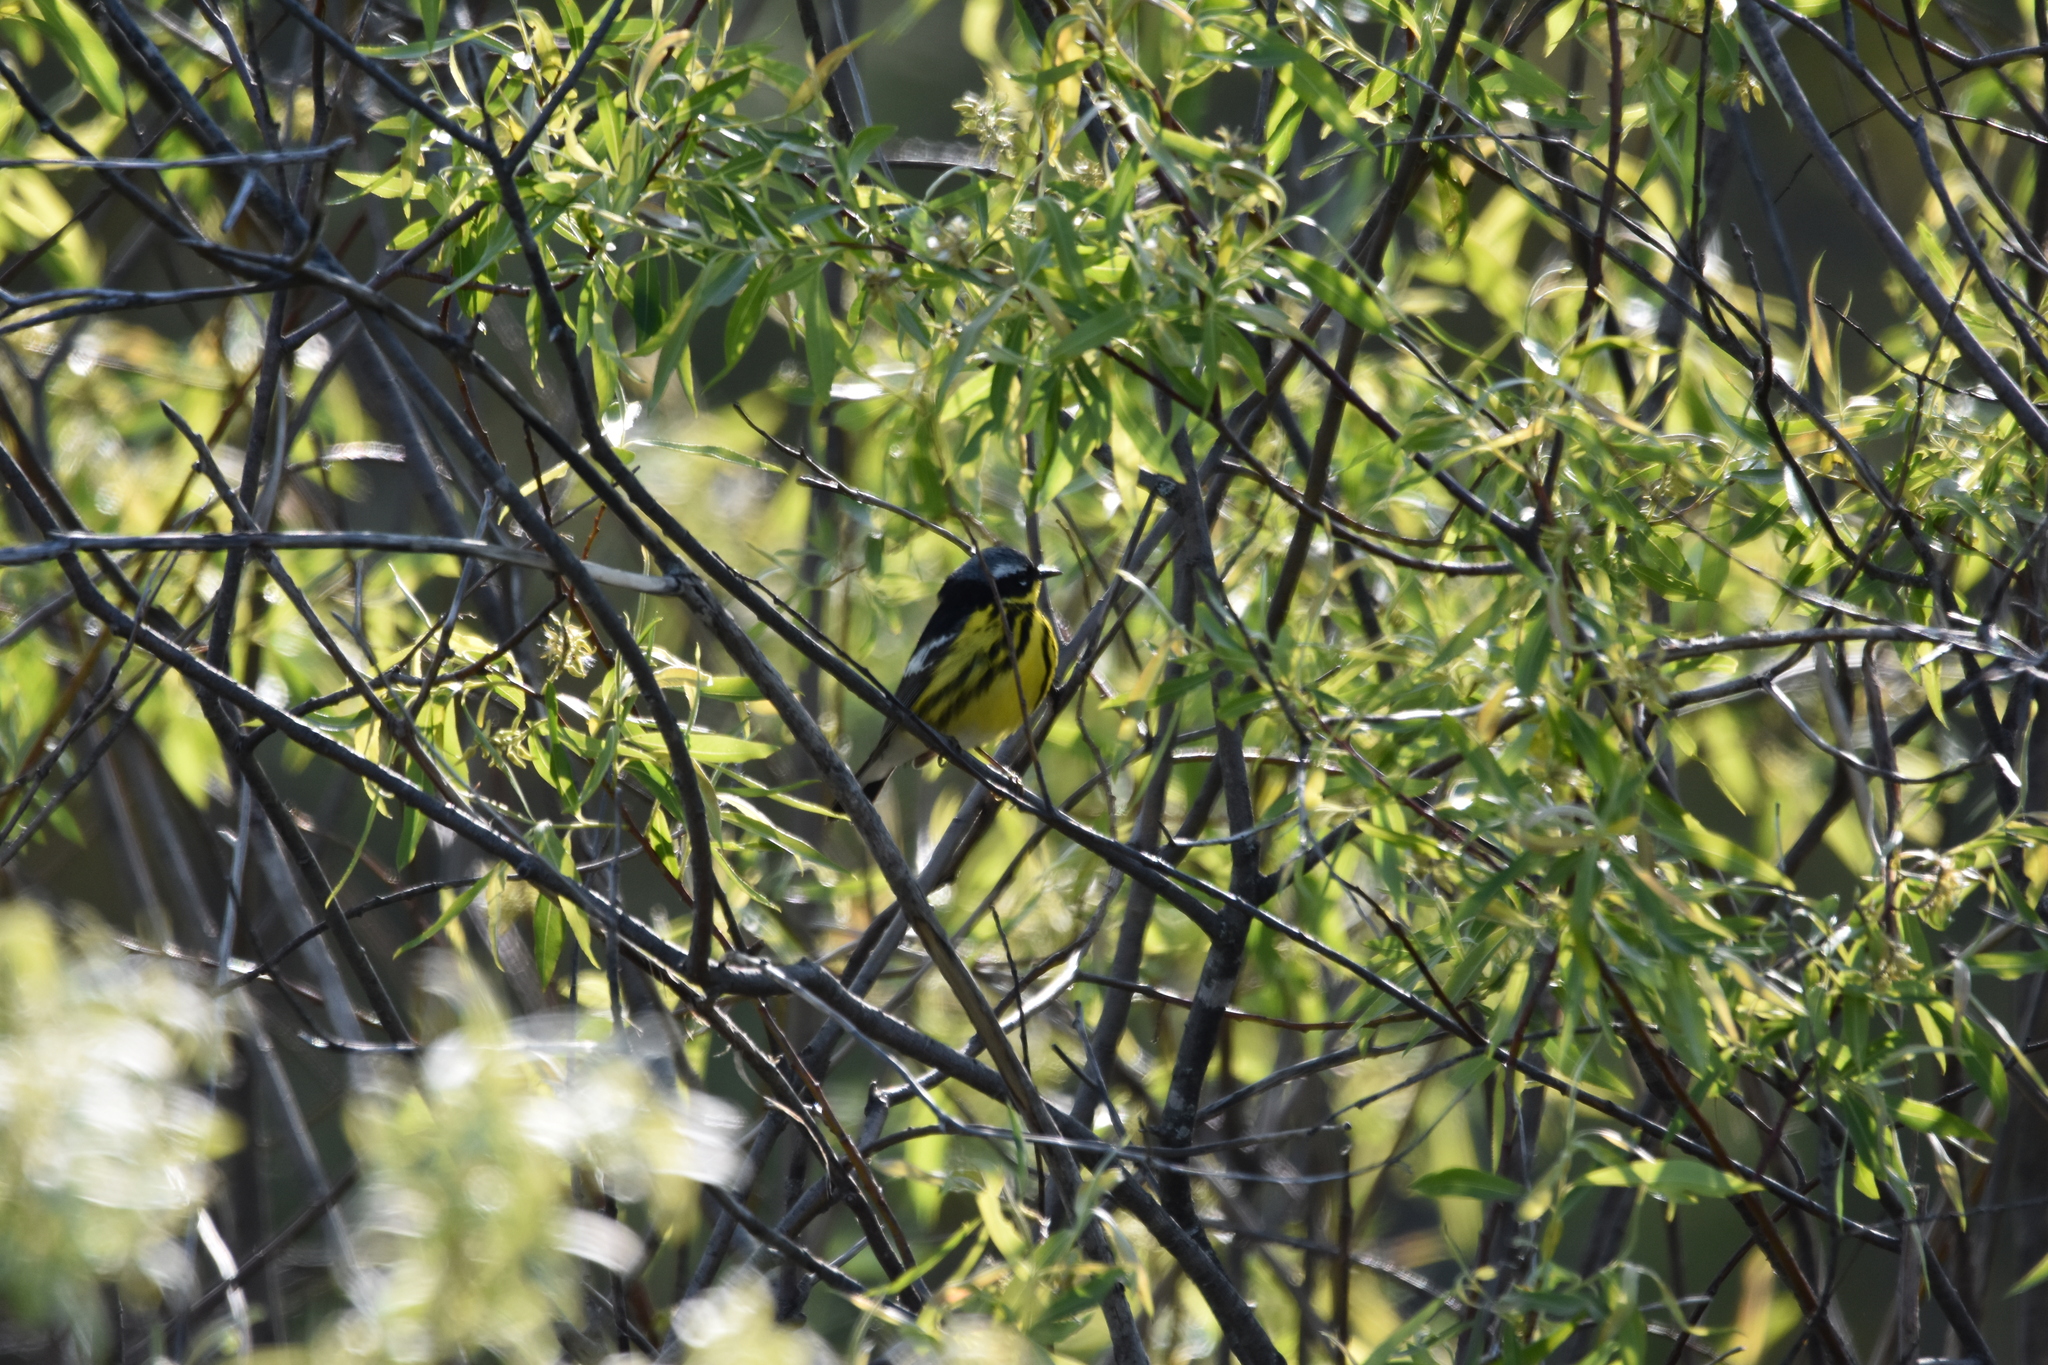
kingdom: Animalia
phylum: Chordata
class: Aves
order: Passeriformes
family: Parulidae
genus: Setophaga
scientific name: Setophaga magnolia
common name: Magnolia warbler
